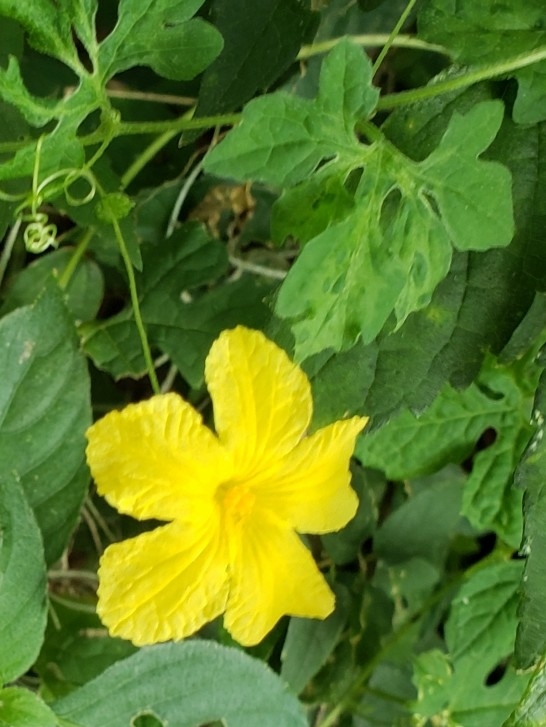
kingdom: Plantae
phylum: Tracheophyta
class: Magnoliopsida
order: Cucurbitales
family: Cucurbitaceae
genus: Momordica
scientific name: Momordica charantia
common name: Balsampear
